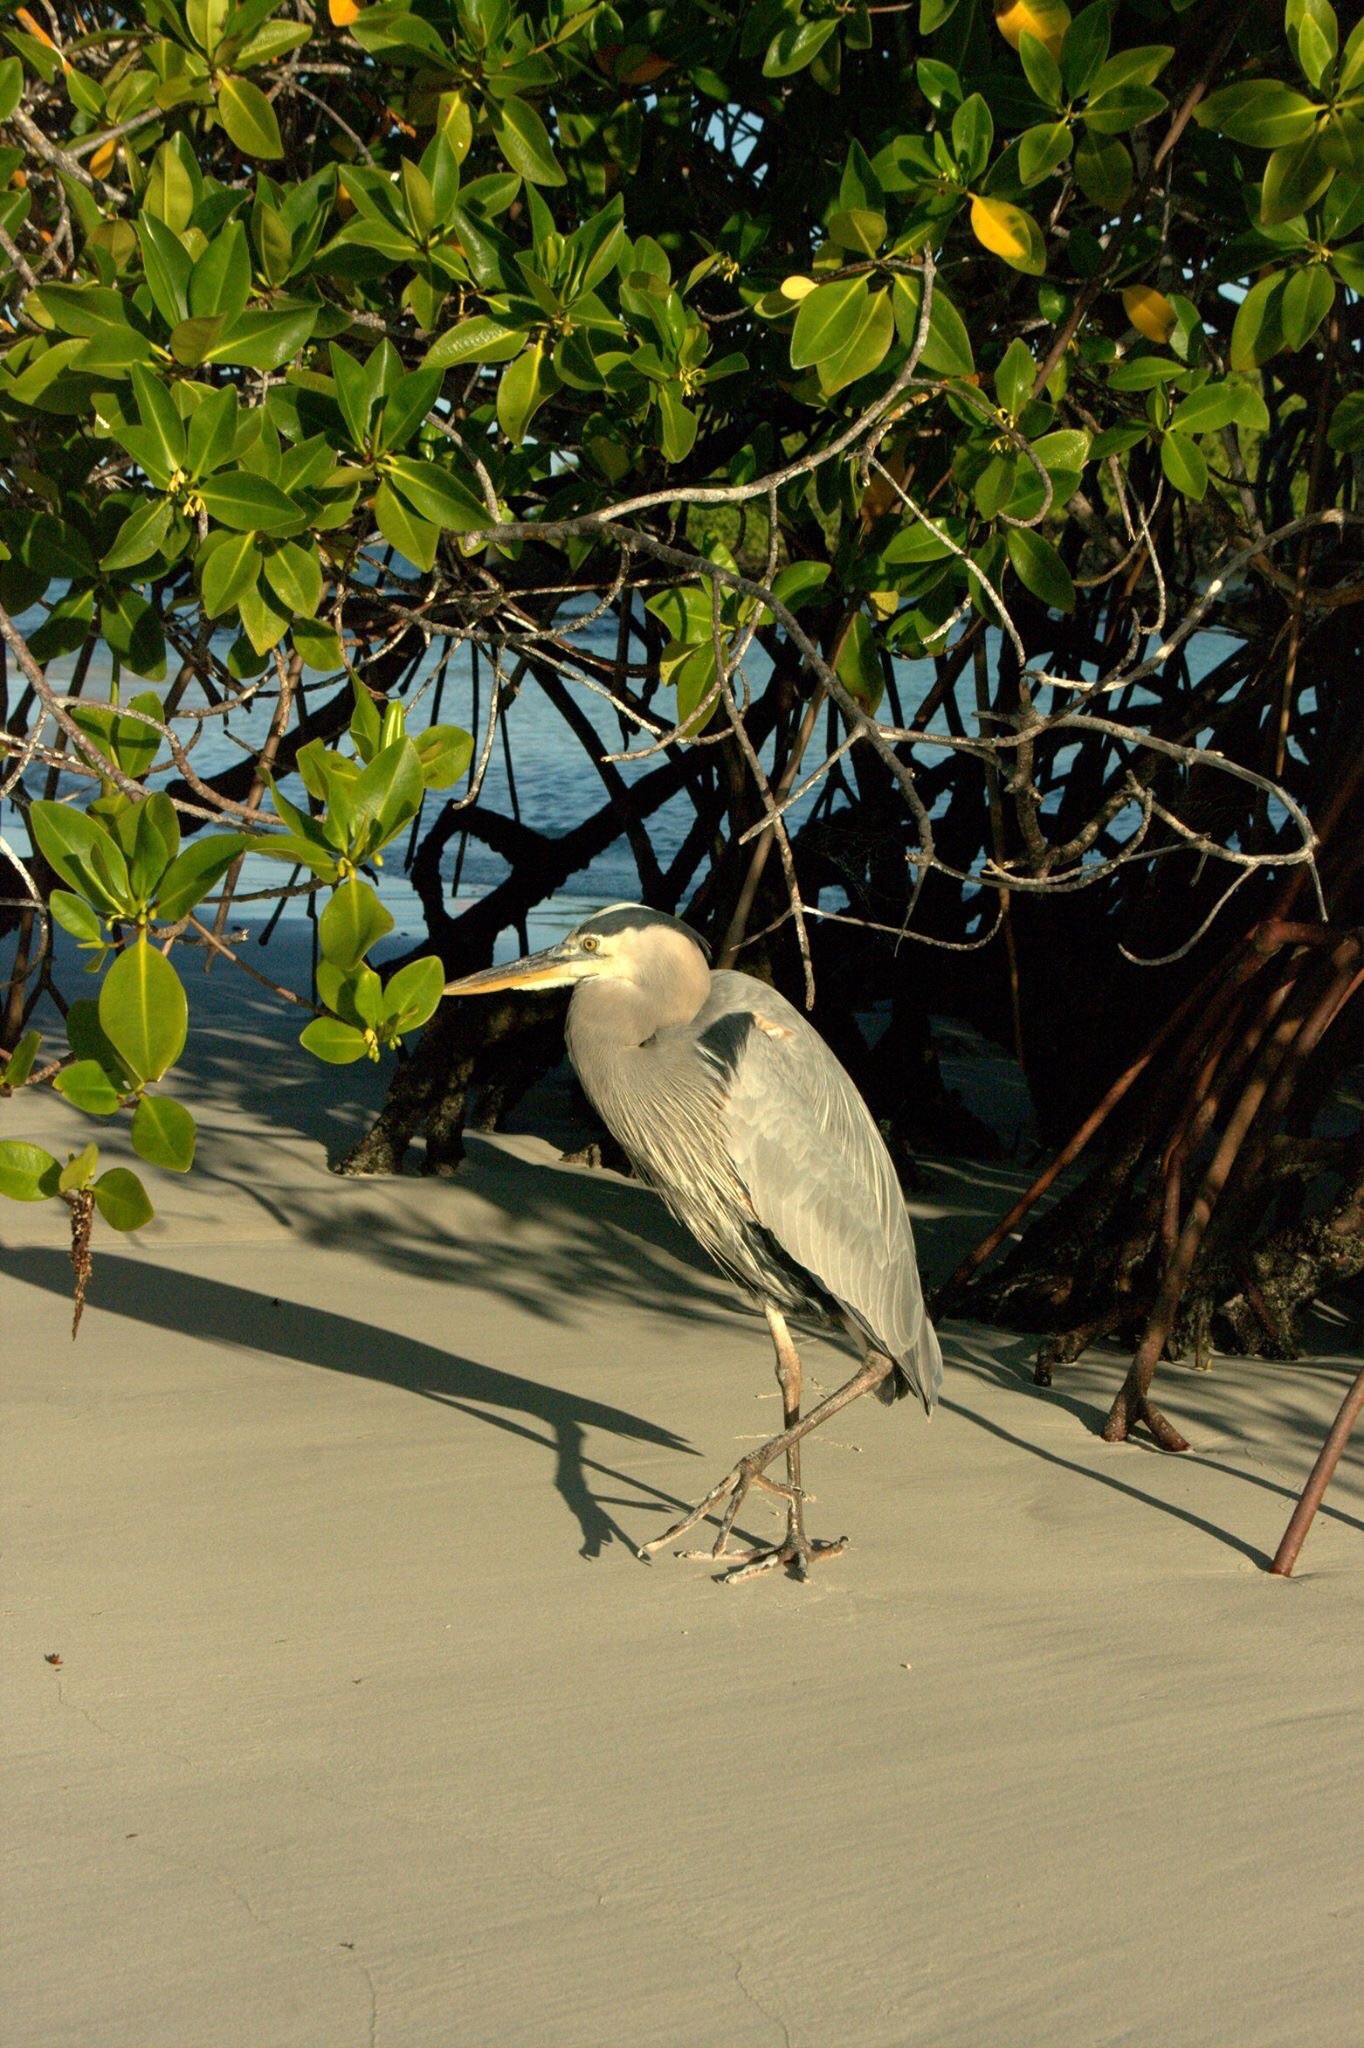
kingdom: Animalia
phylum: Chordata
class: Aves
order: Pelecaniformes
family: Ardeidae
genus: Ardea
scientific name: Ardea herodias
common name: Great blue heron
